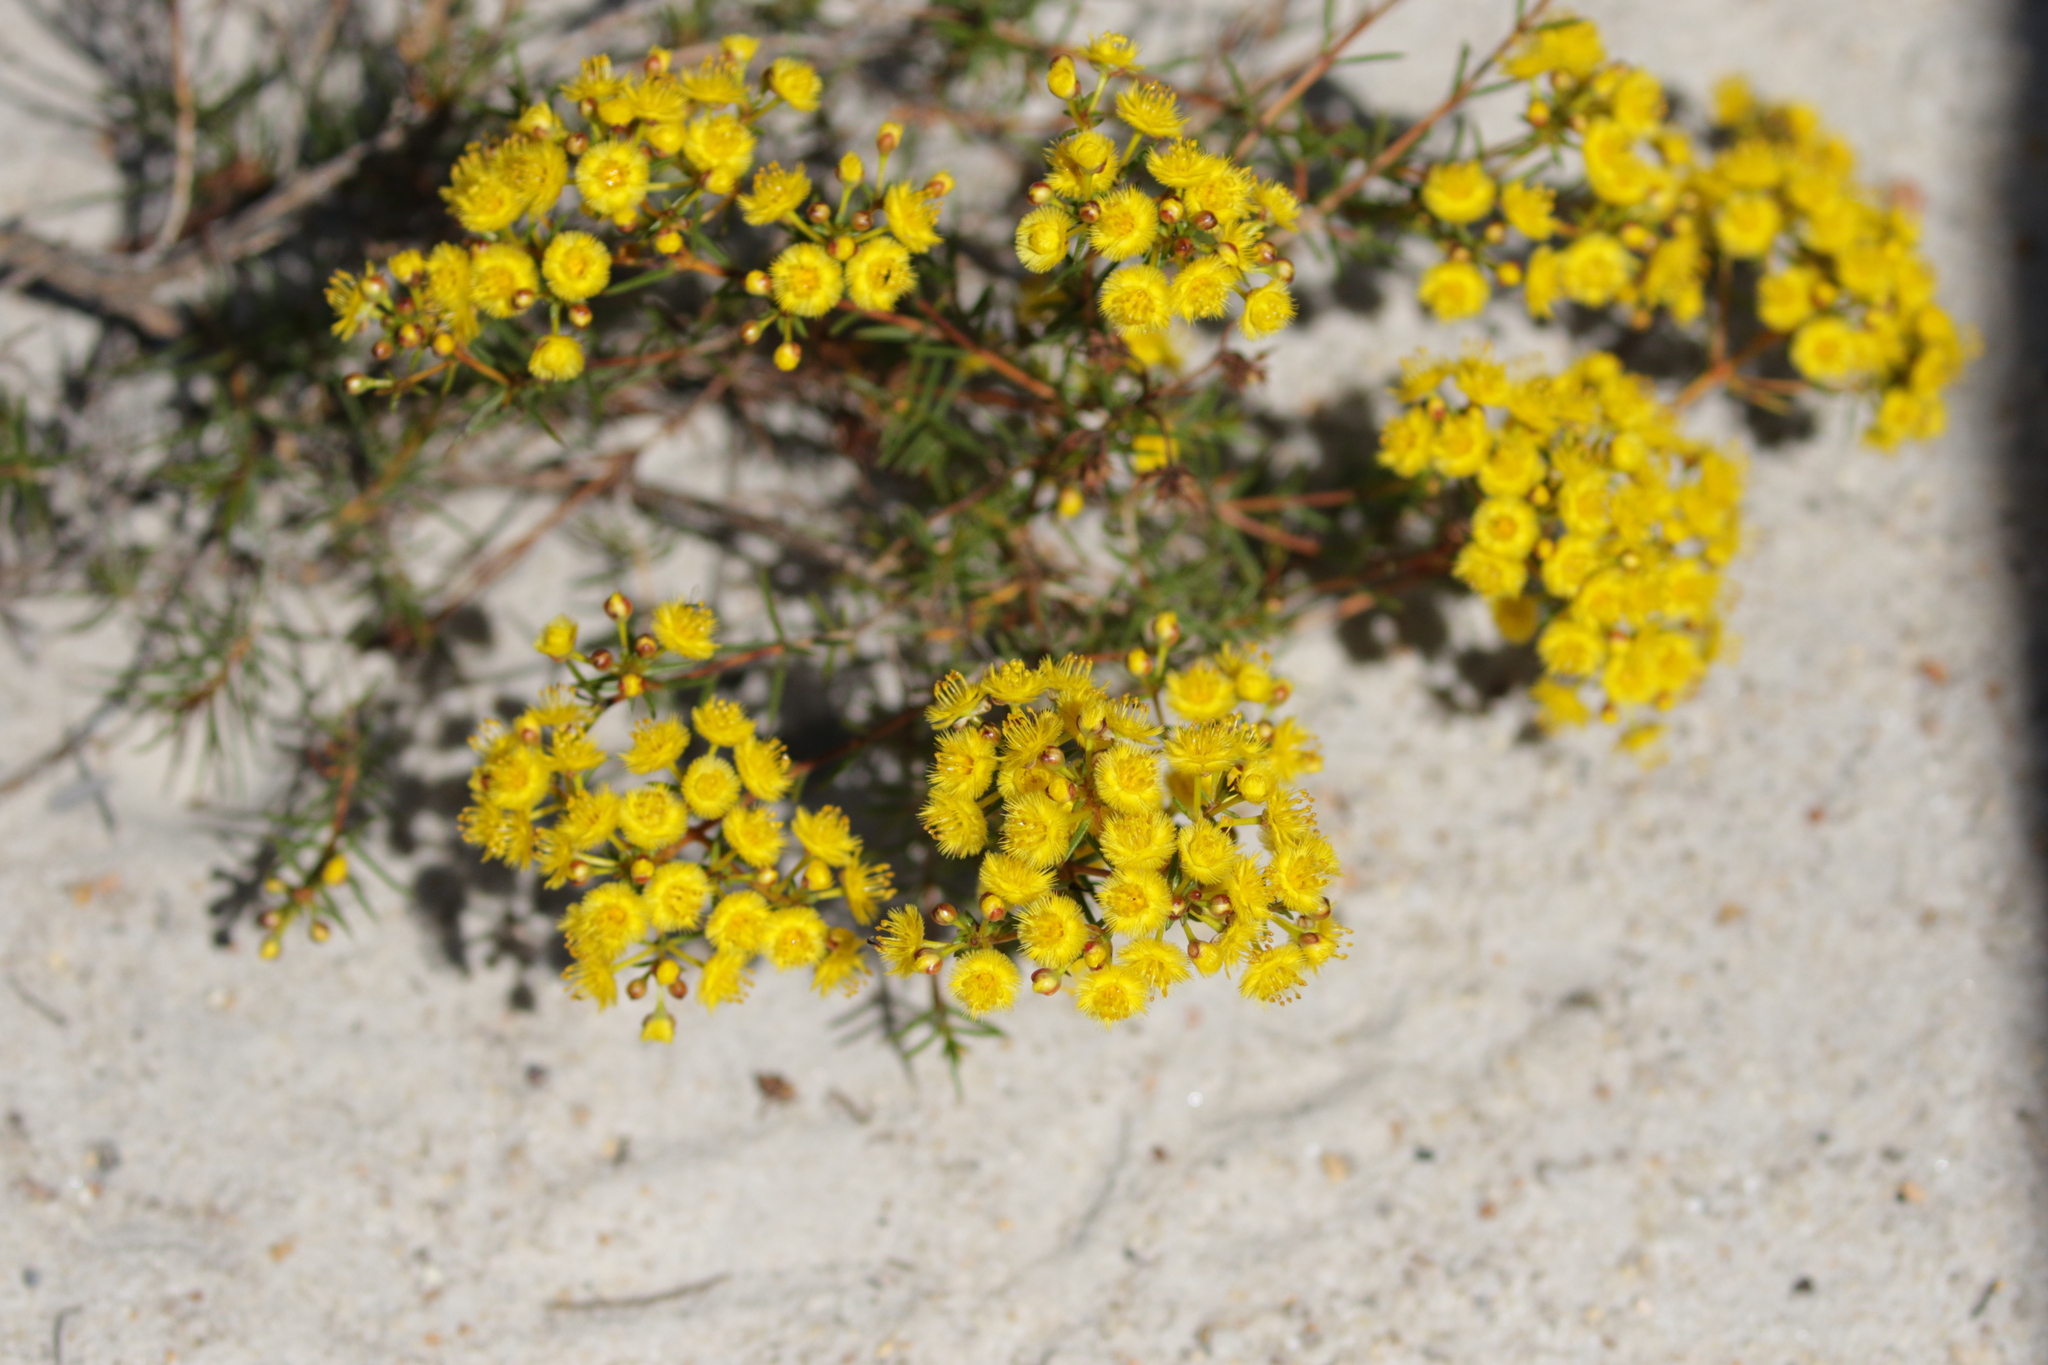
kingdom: Plantae
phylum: Tracheophyta
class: Magnoliopsida
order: Myrtales
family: Myrtaceae
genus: Verticordia
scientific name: Verticordia chrysanthella
